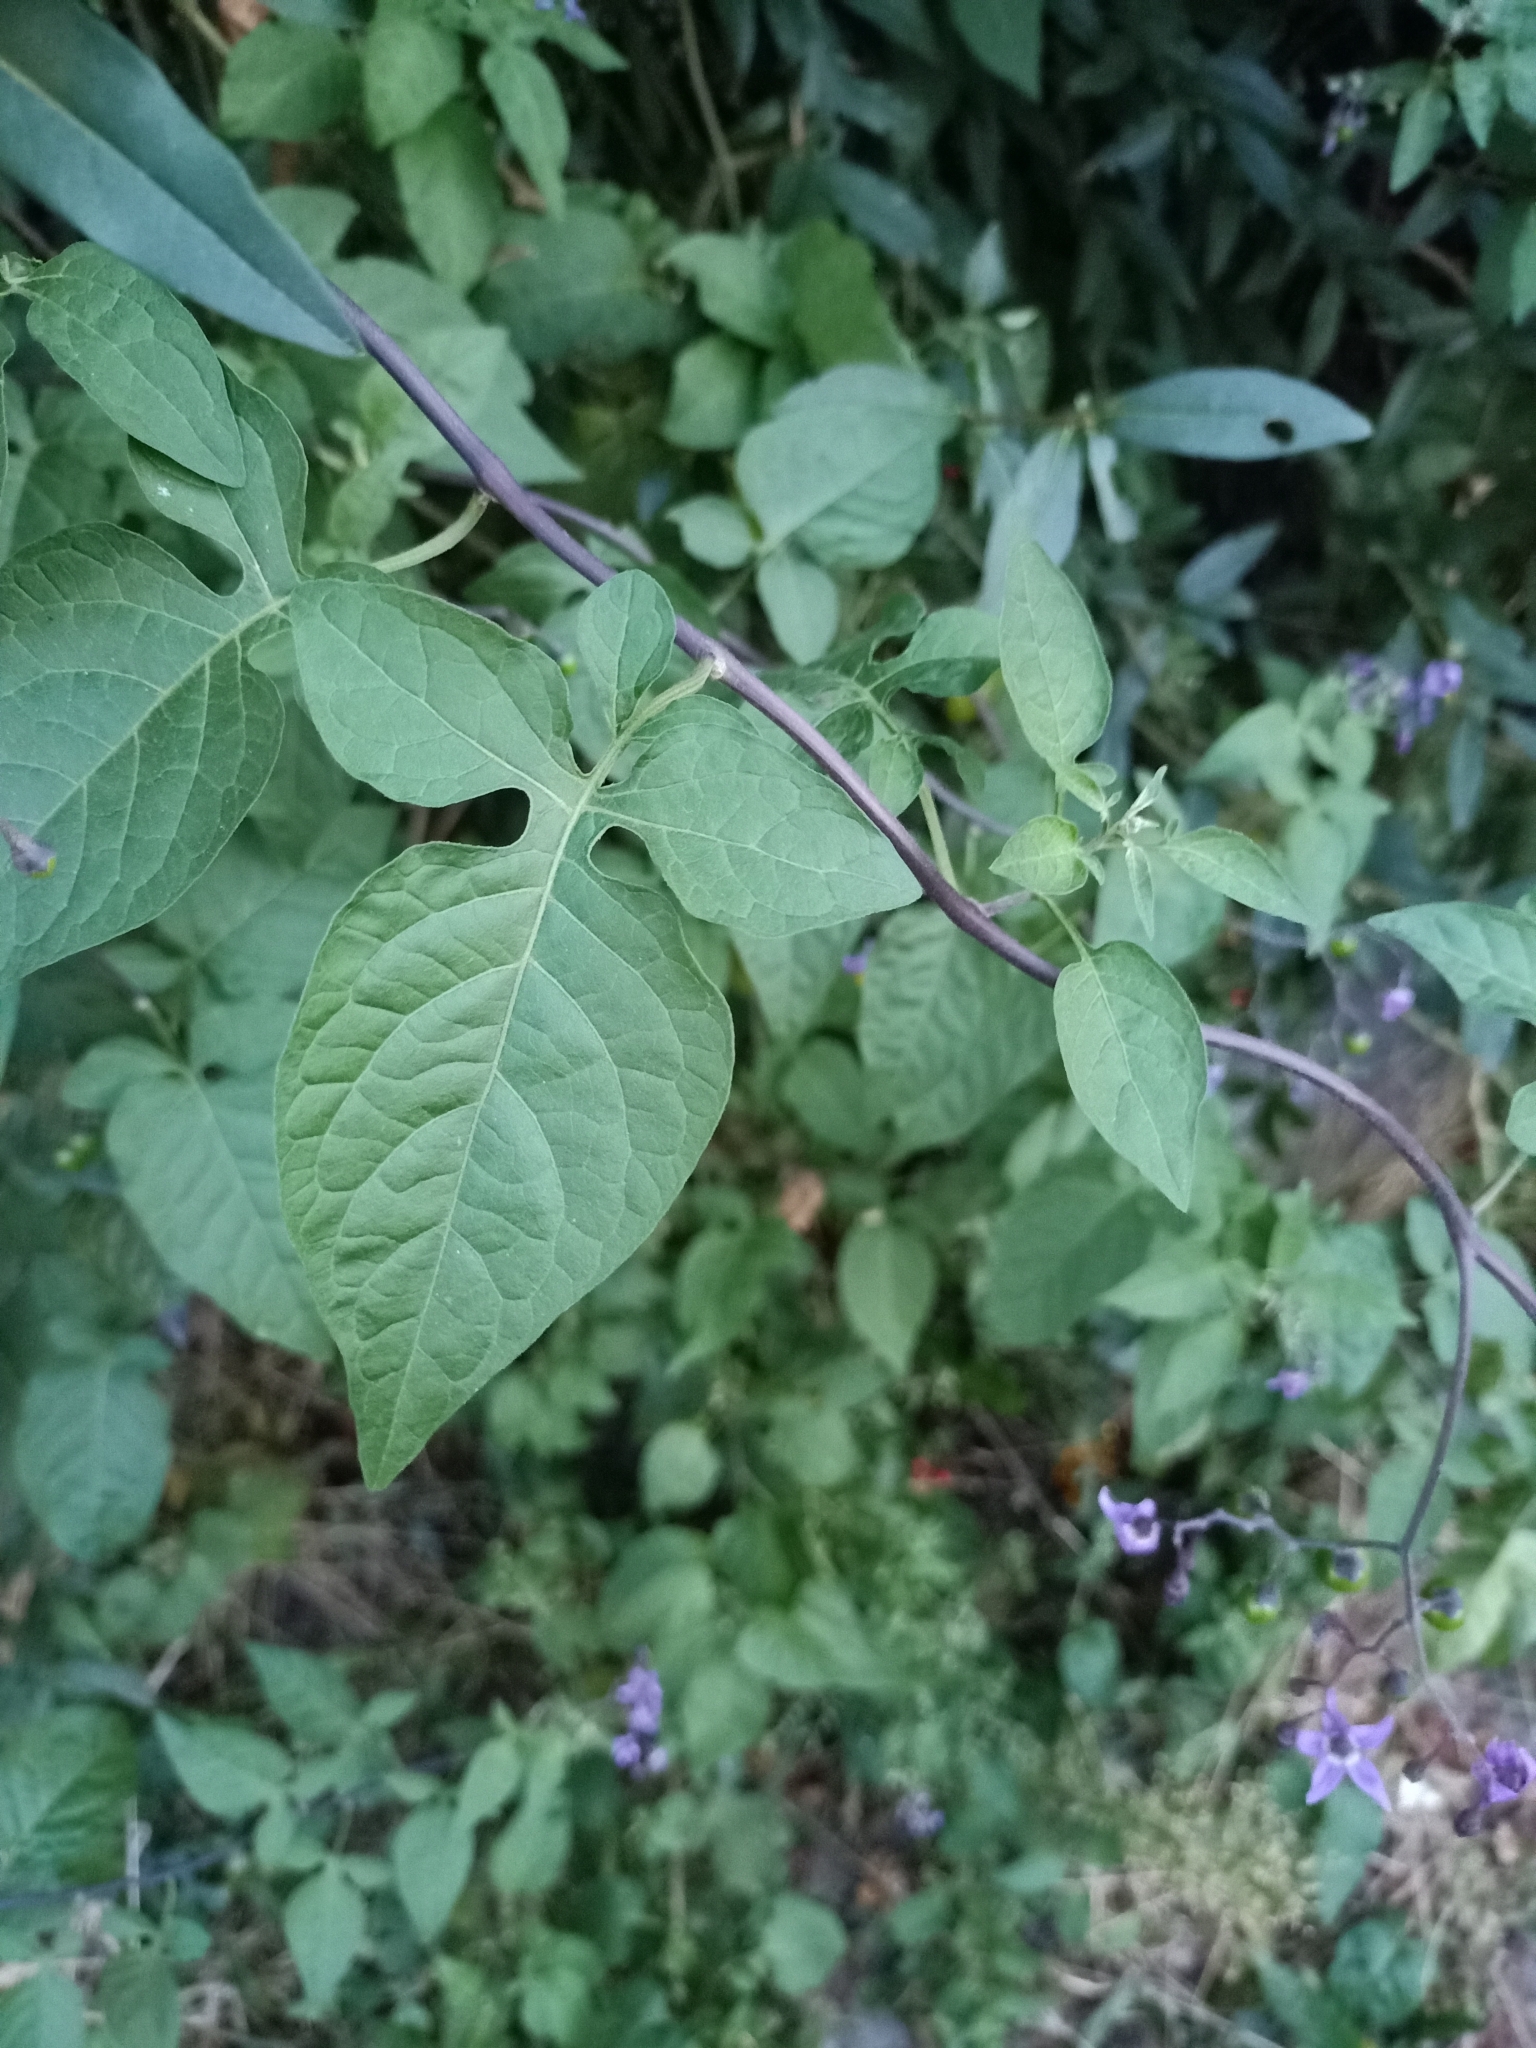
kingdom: Plantae
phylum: Tracheophyta
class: Magnoliopsida
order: Solanales
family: Solanaceae
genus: Solanum
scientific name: Solanum dulcamara
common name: Climbing nightshade
